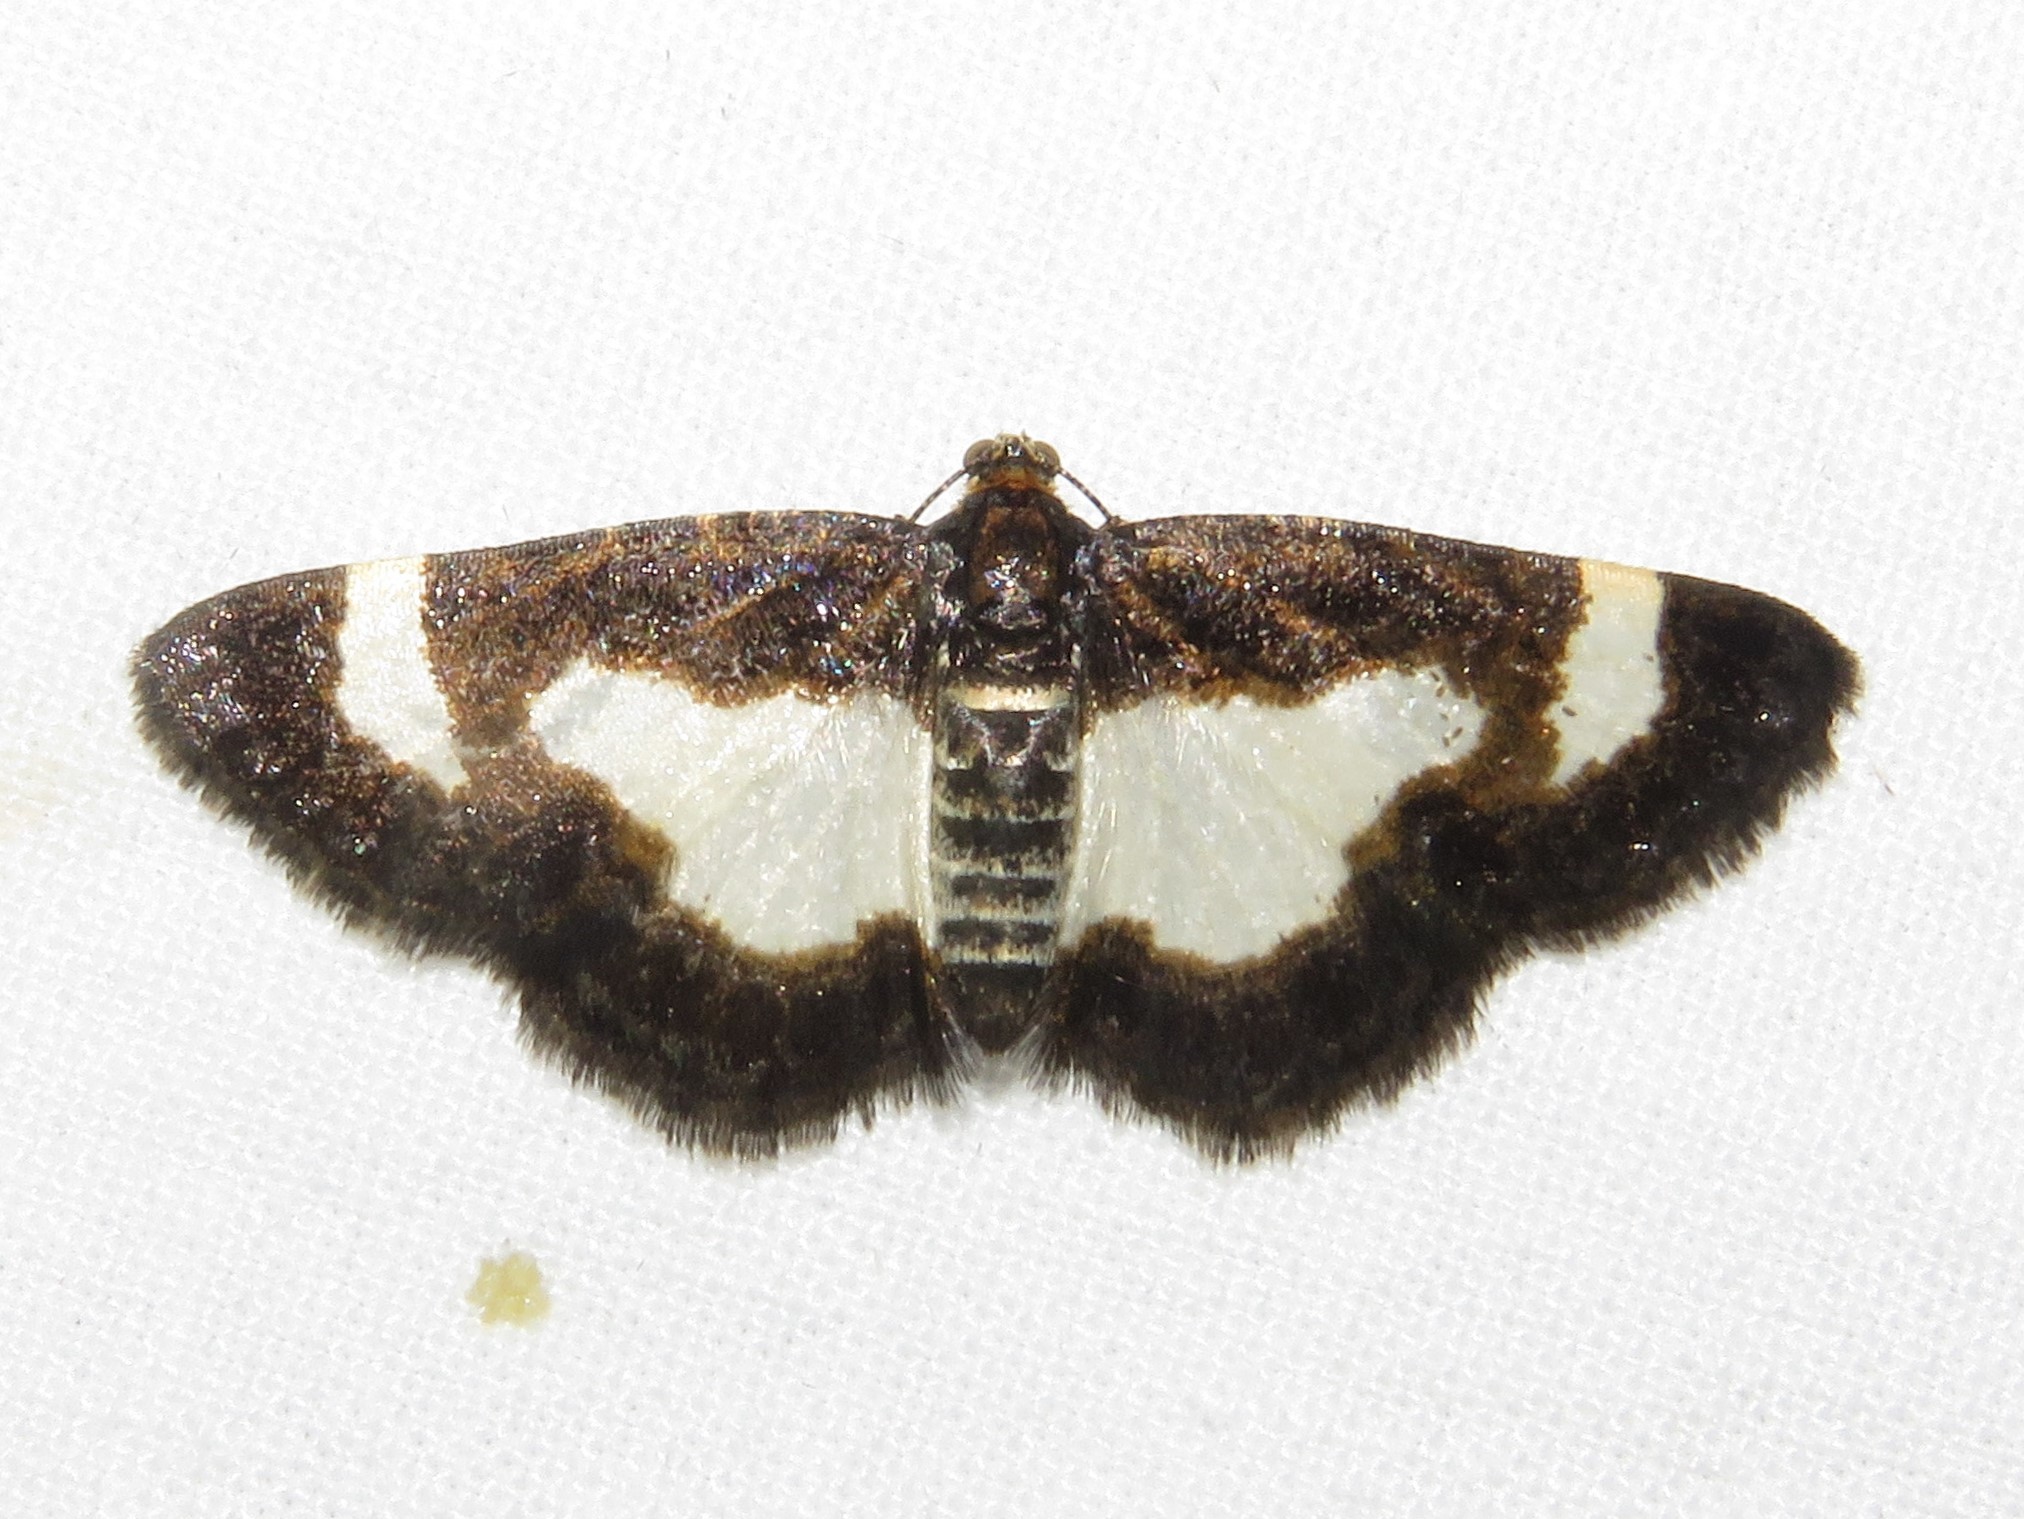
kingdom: Animalia
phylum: Arthropoda
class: Insecta
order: Lepidoptera
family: Geometridae
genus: Heliomata
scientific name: Heliomata cycladata
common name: Common spring moth
